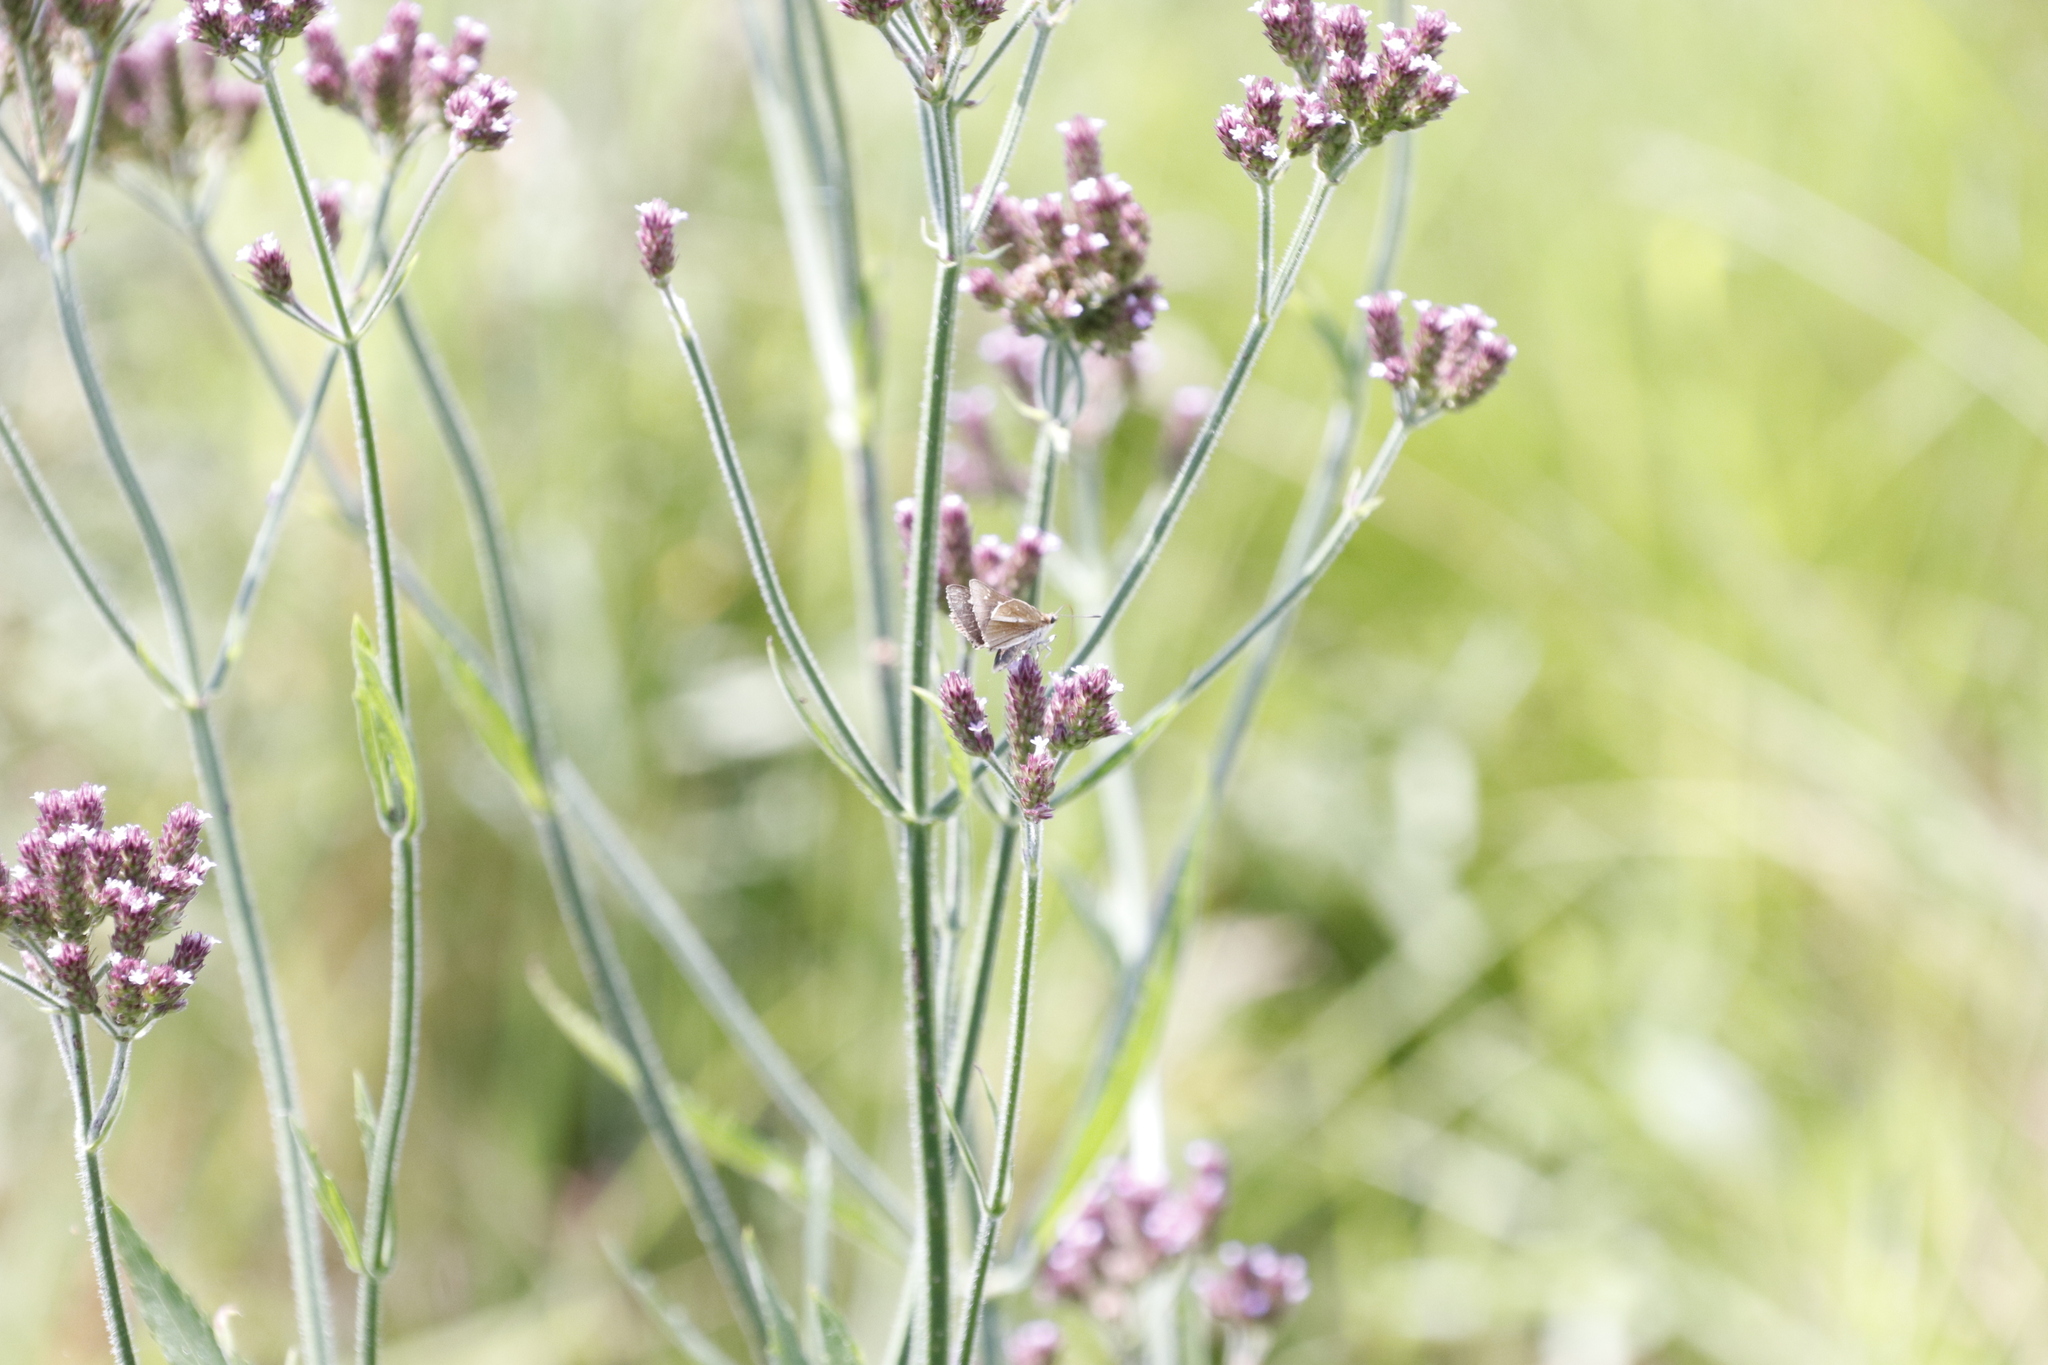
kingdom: Animalia
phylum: Arthropoda
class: Insecta
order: Lepidoptera
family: Hesperiidae
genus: Nervia
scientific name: Nervia
